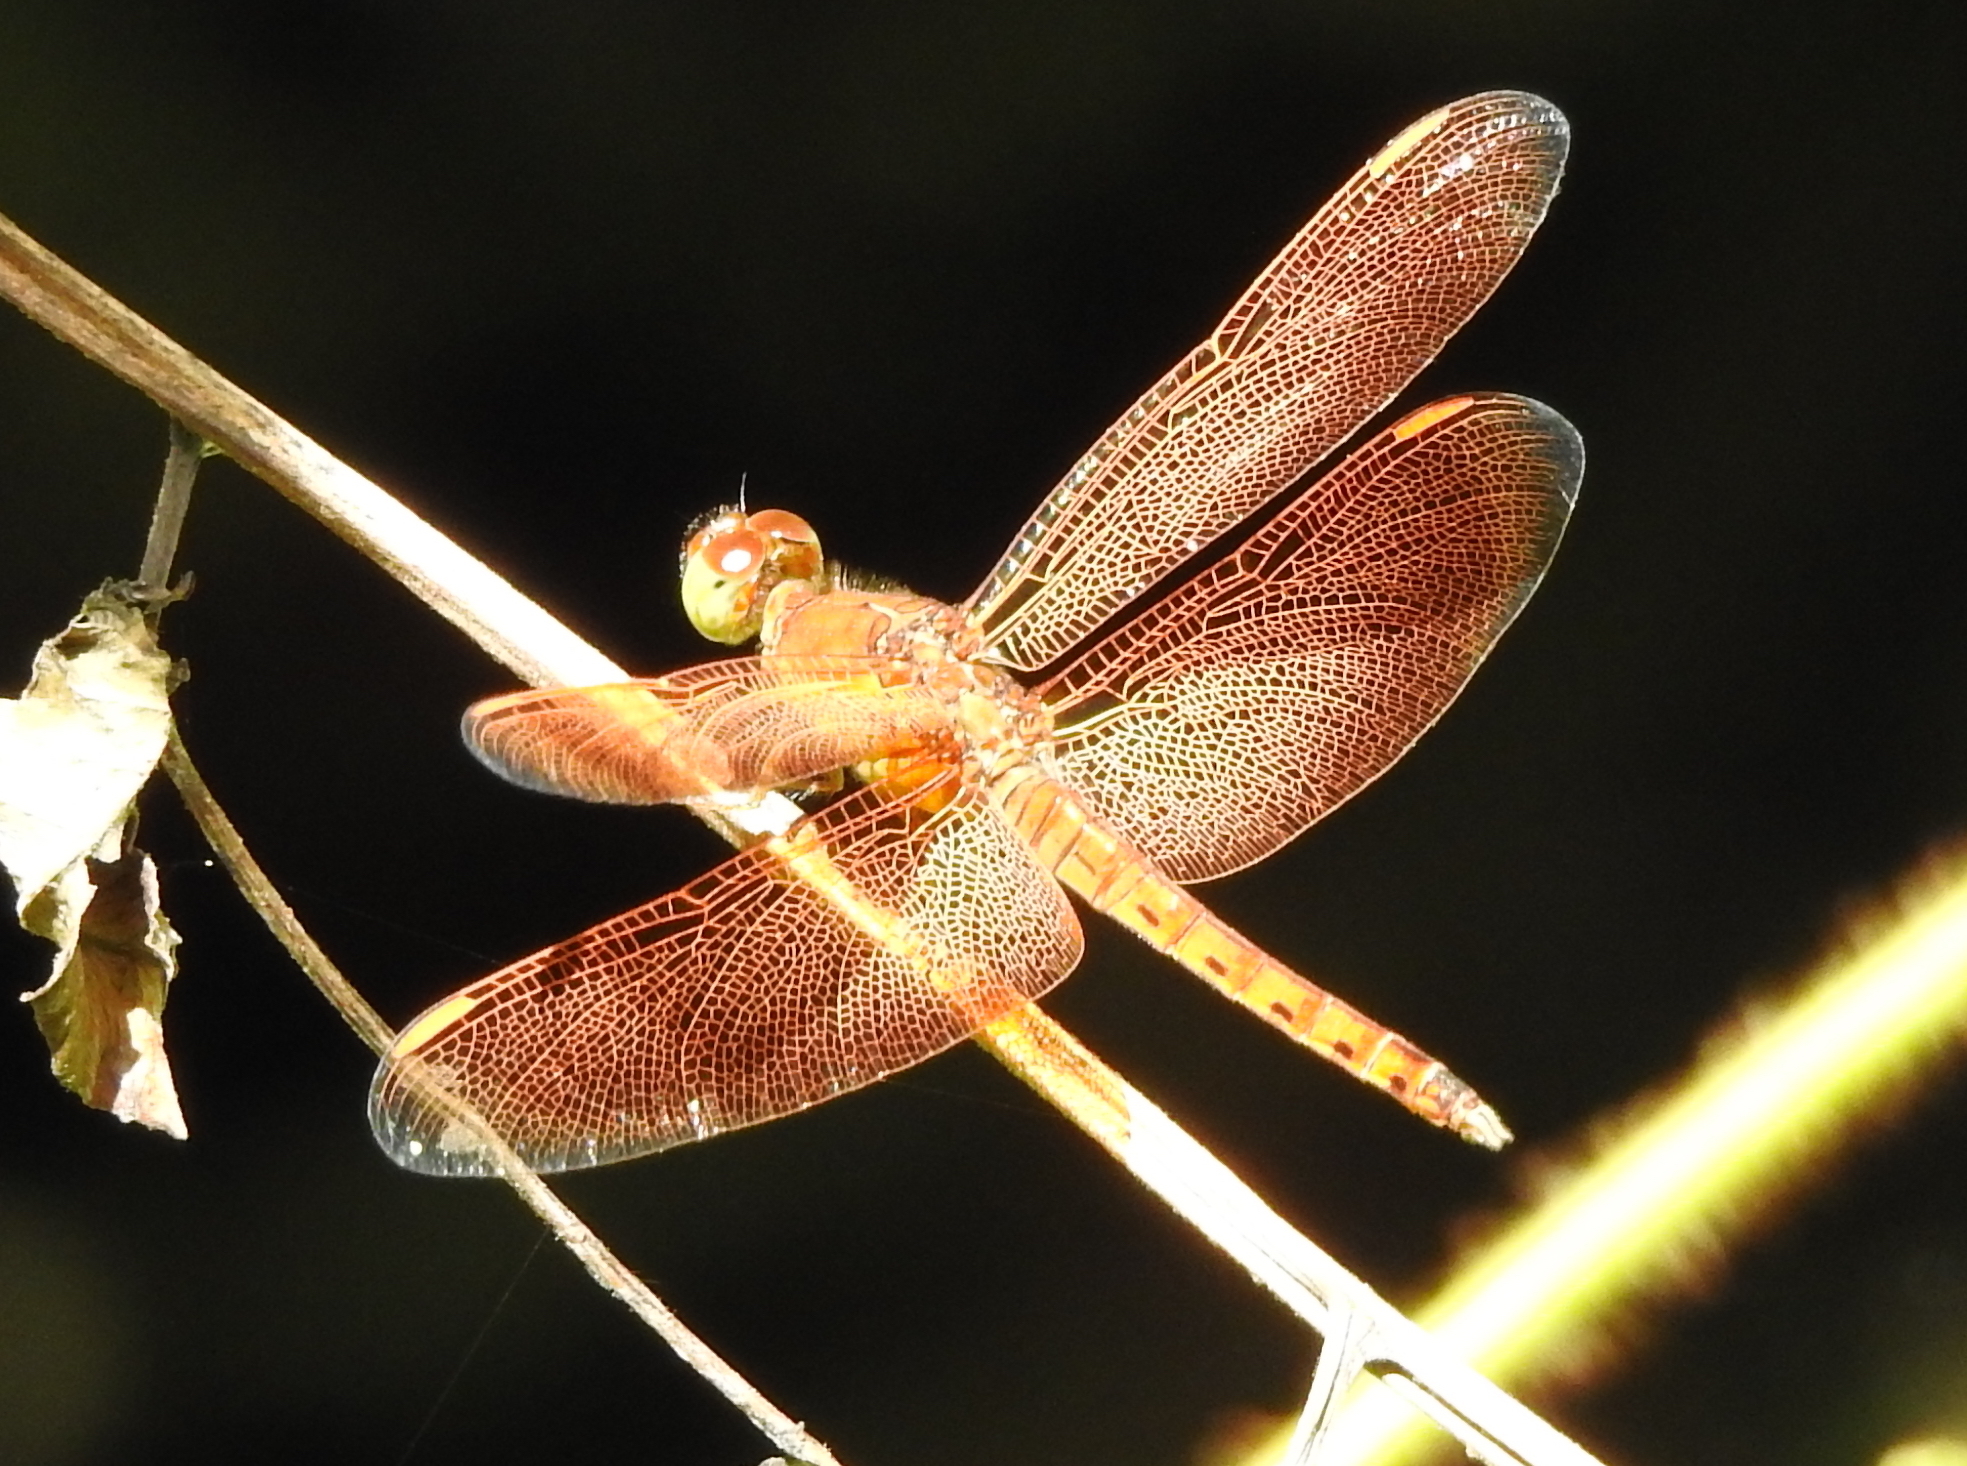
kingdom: Animalia
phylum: Arthropoda
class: Insecta
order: Odonata
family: Libellulidae
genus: Neurothemis
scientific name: Neurothemis fluctuans
